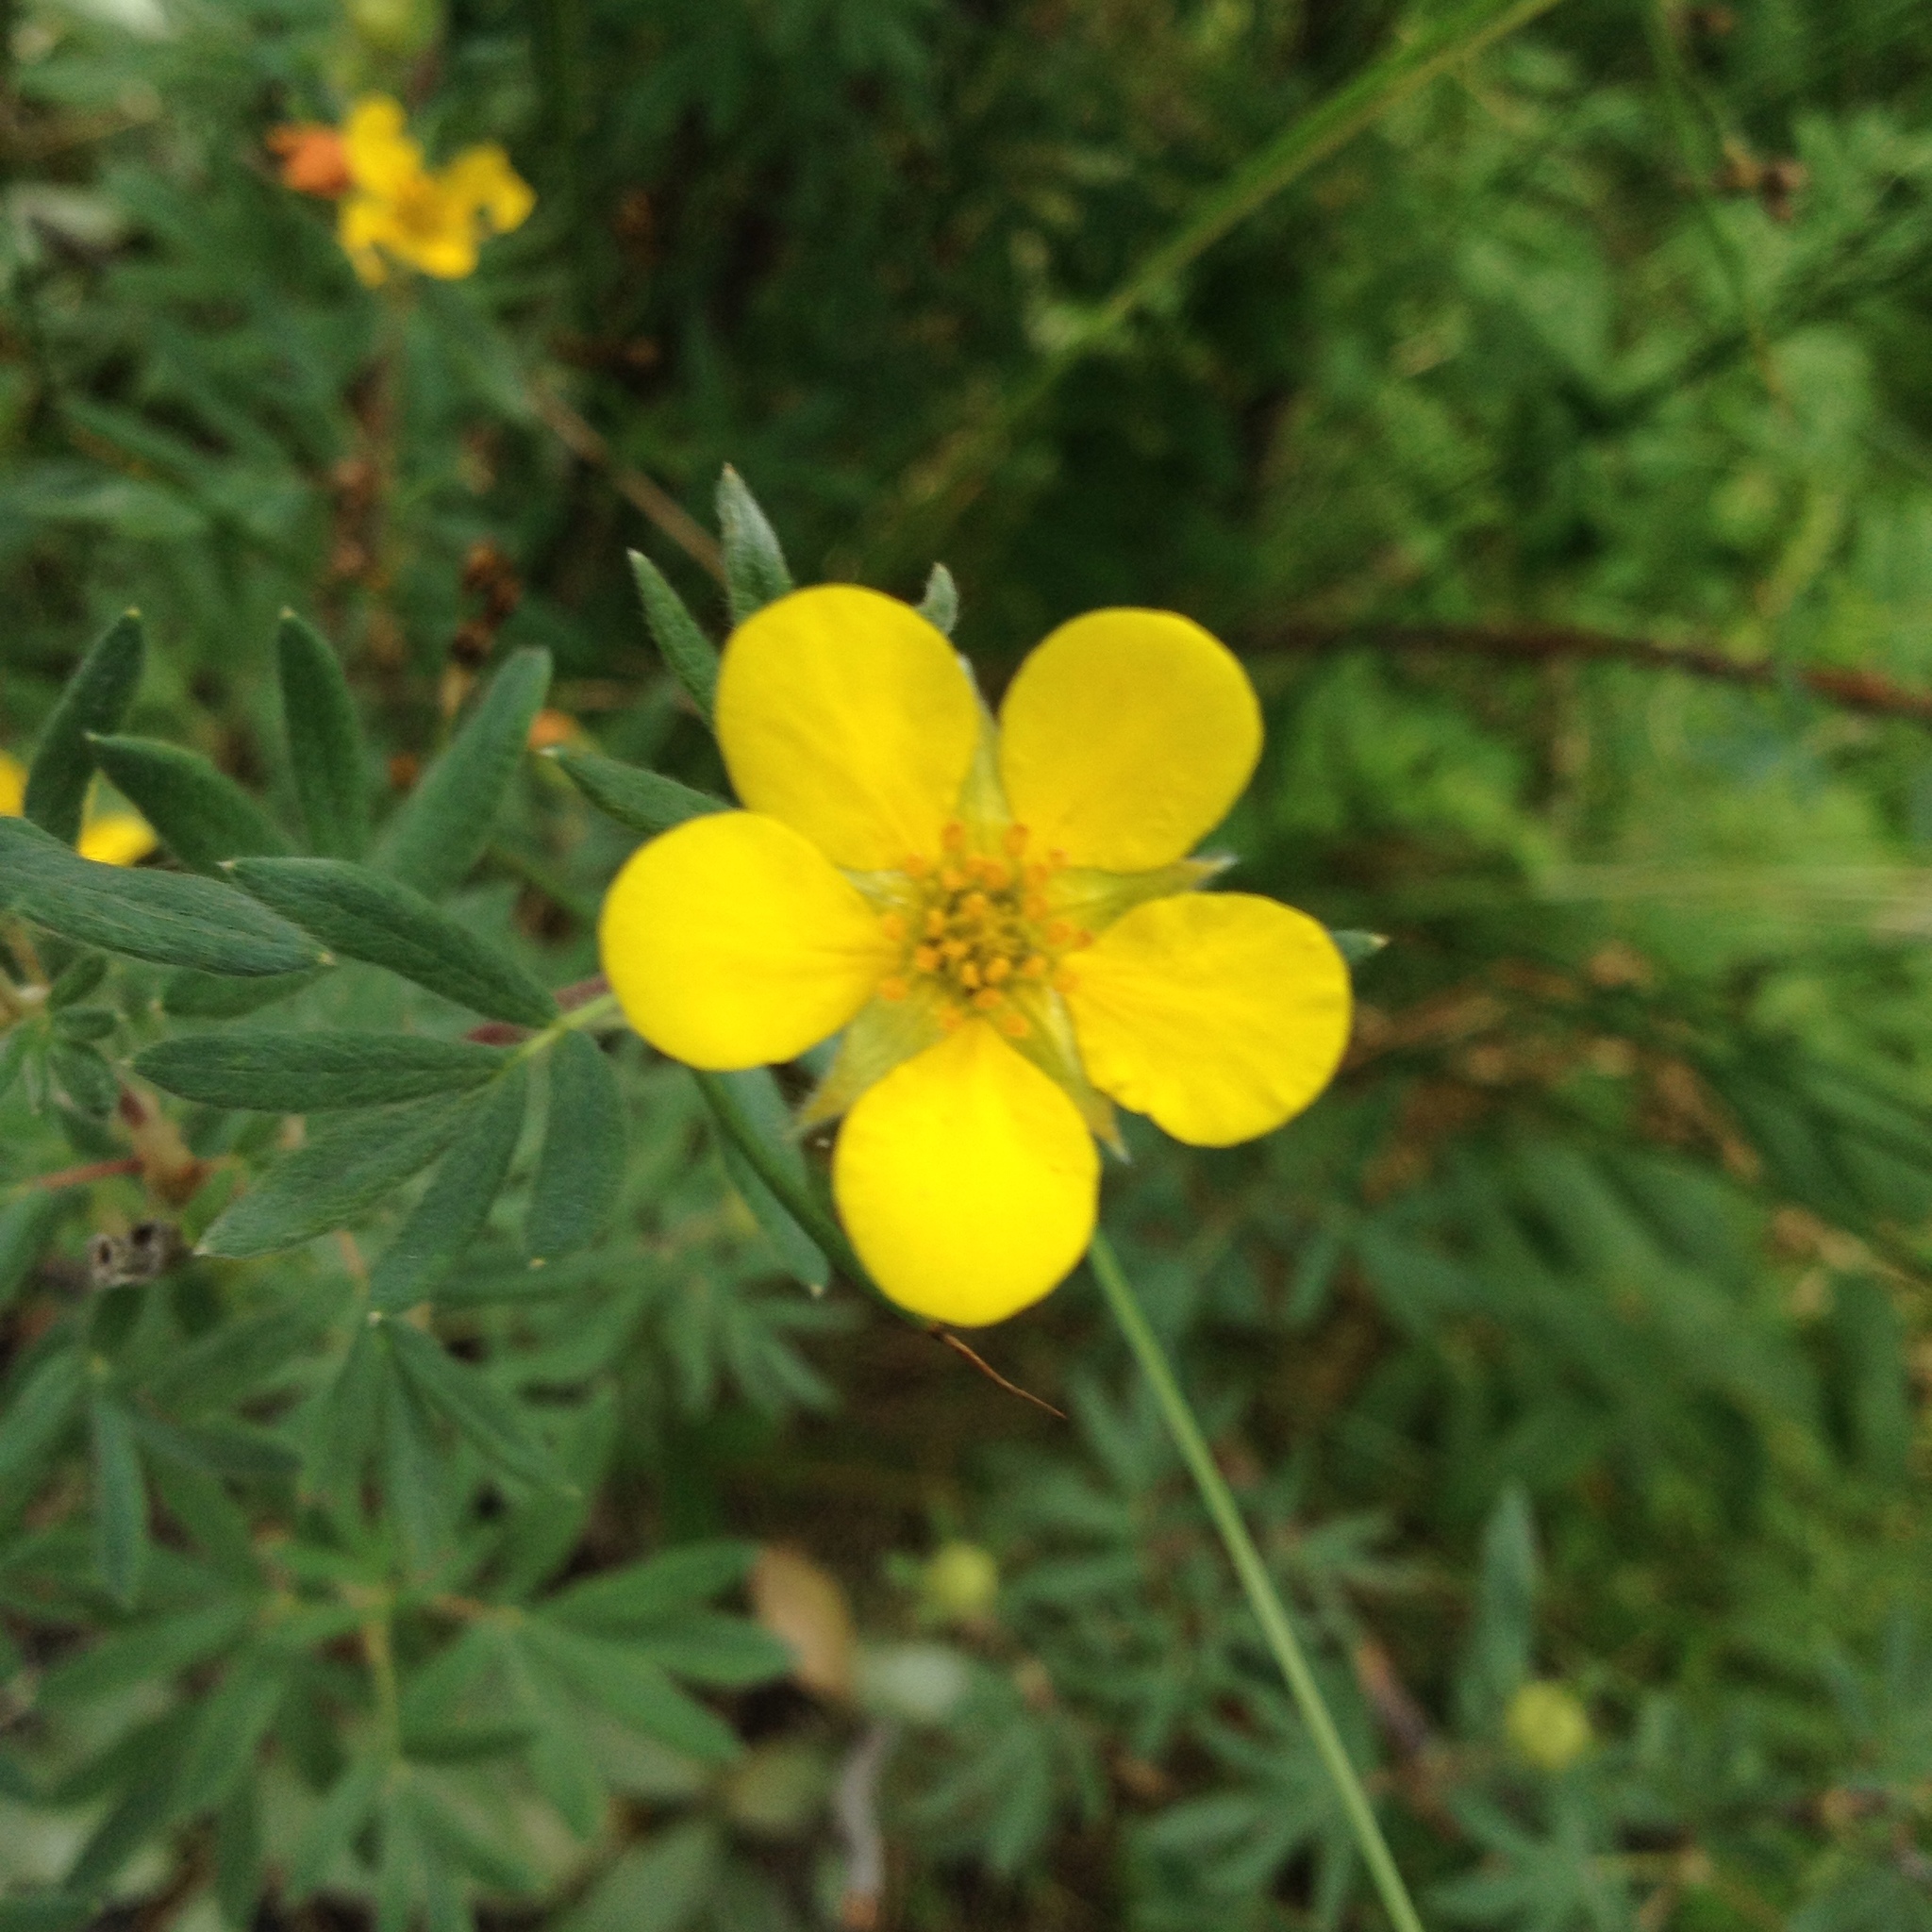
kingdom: Plantae
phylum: Tracheophyta
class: Magnoliopsida
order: Rosales
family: Rosaceae
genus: Dasiphora
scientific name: Dasiphora fruticosa
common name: Shrubby cinquefoil
